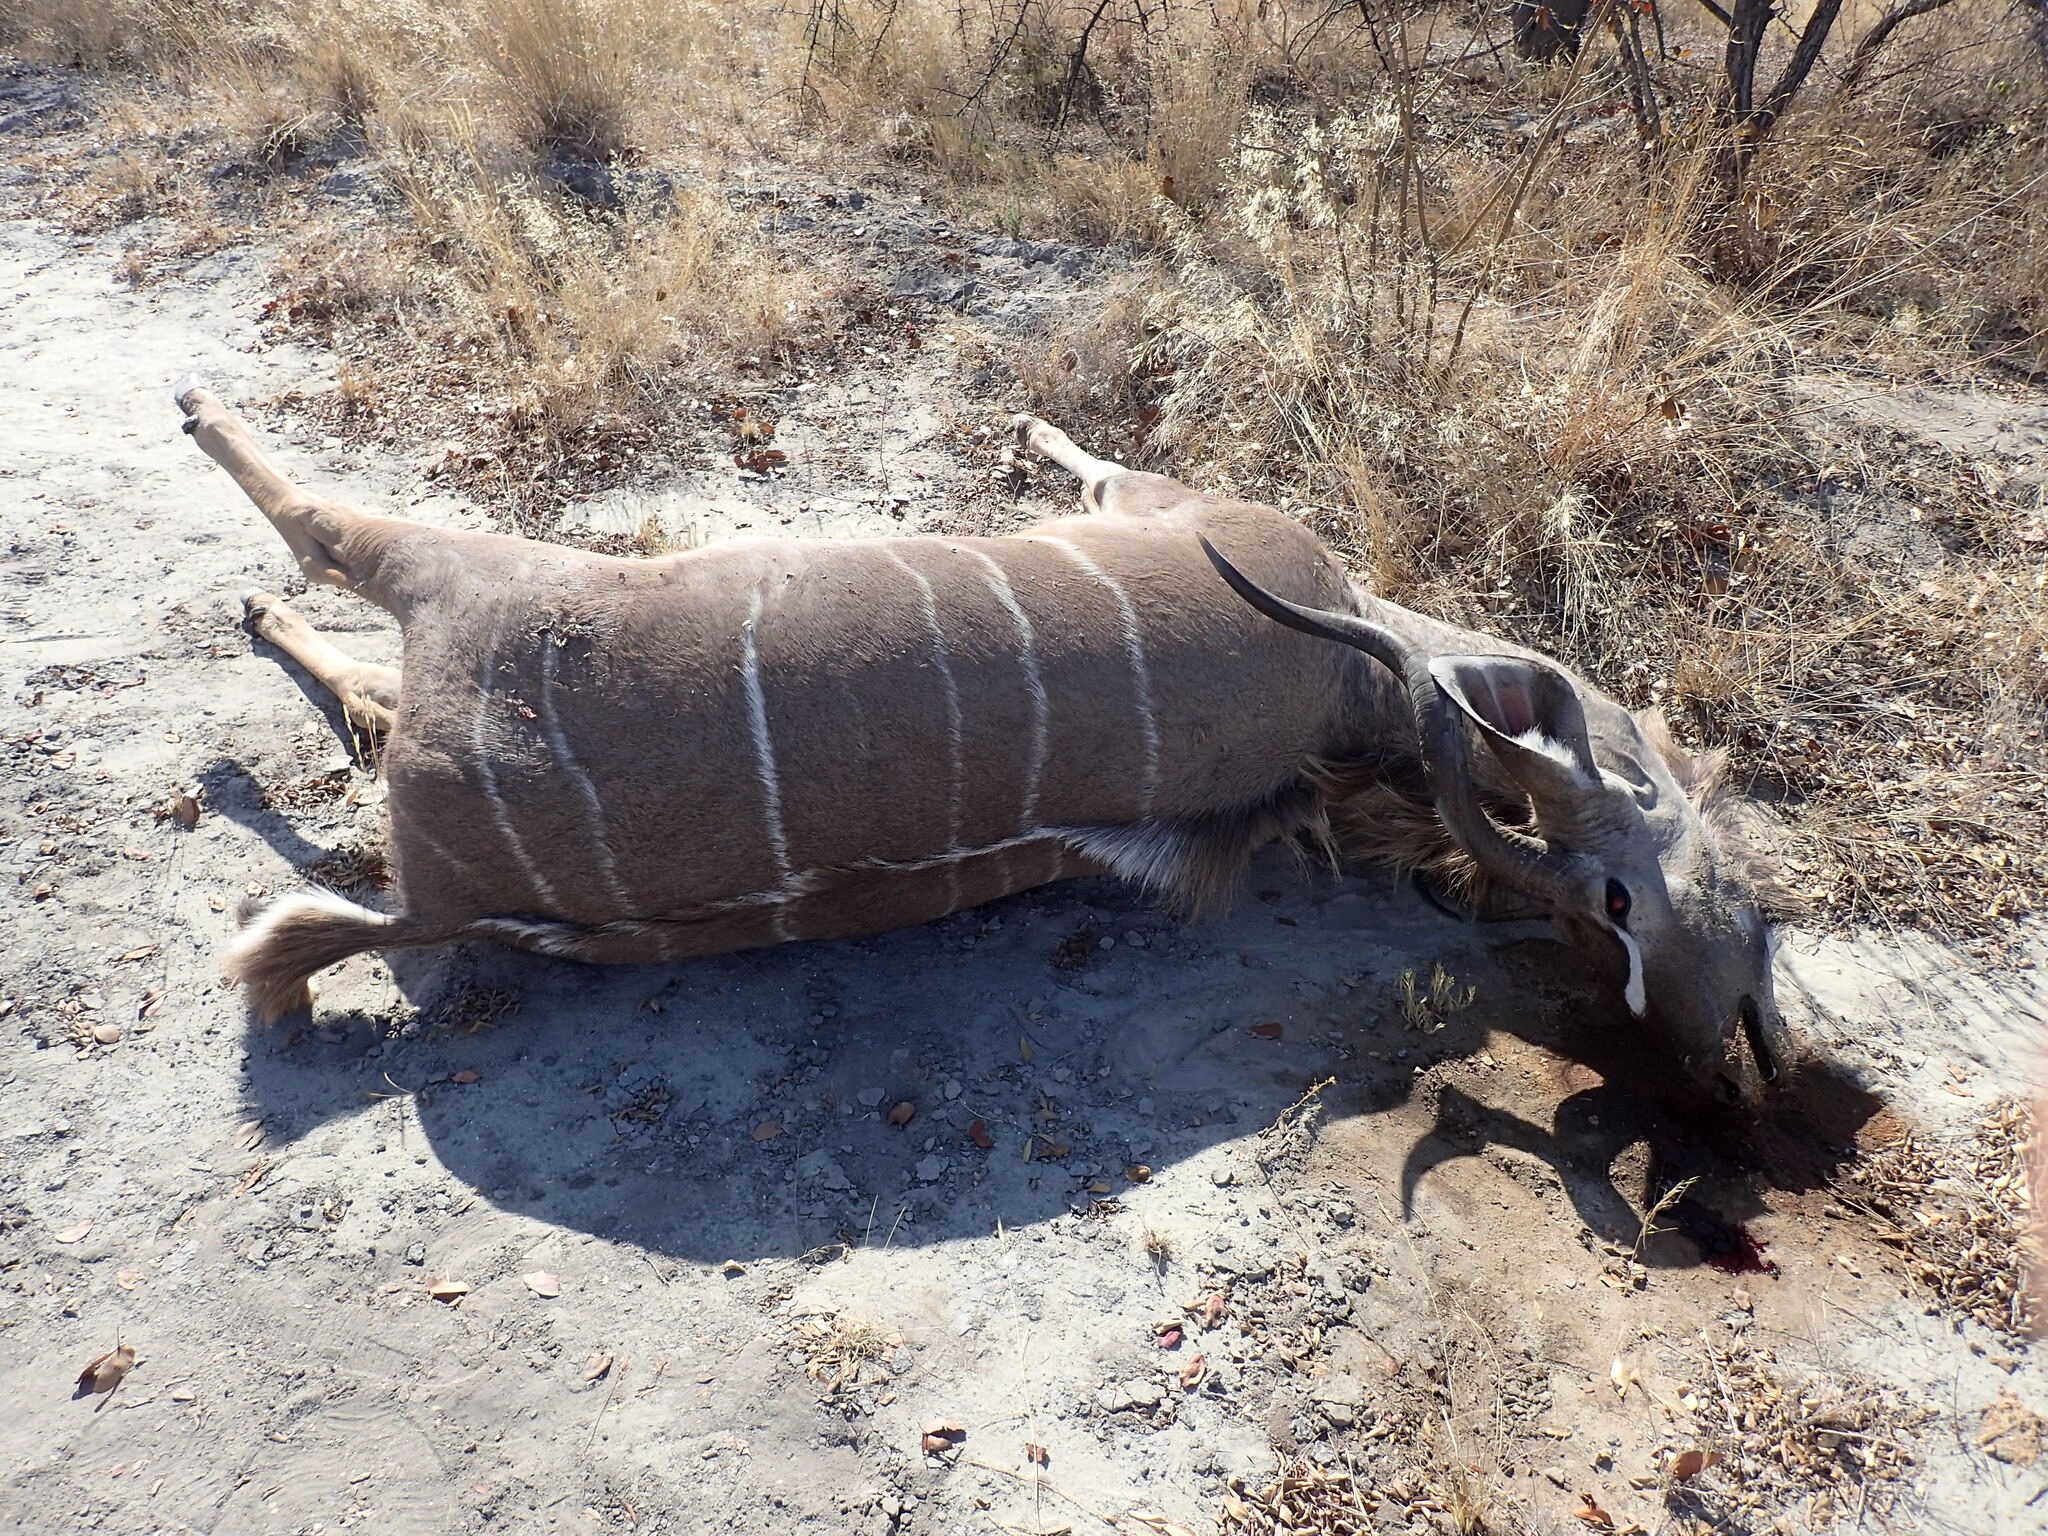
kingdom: Animalia
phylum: Chordata
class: Mammalia
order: Artiodactyla
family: Bovidae
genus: Tragelaphus
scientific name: Tragelaphus strepsiceros
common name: Greater kudu
